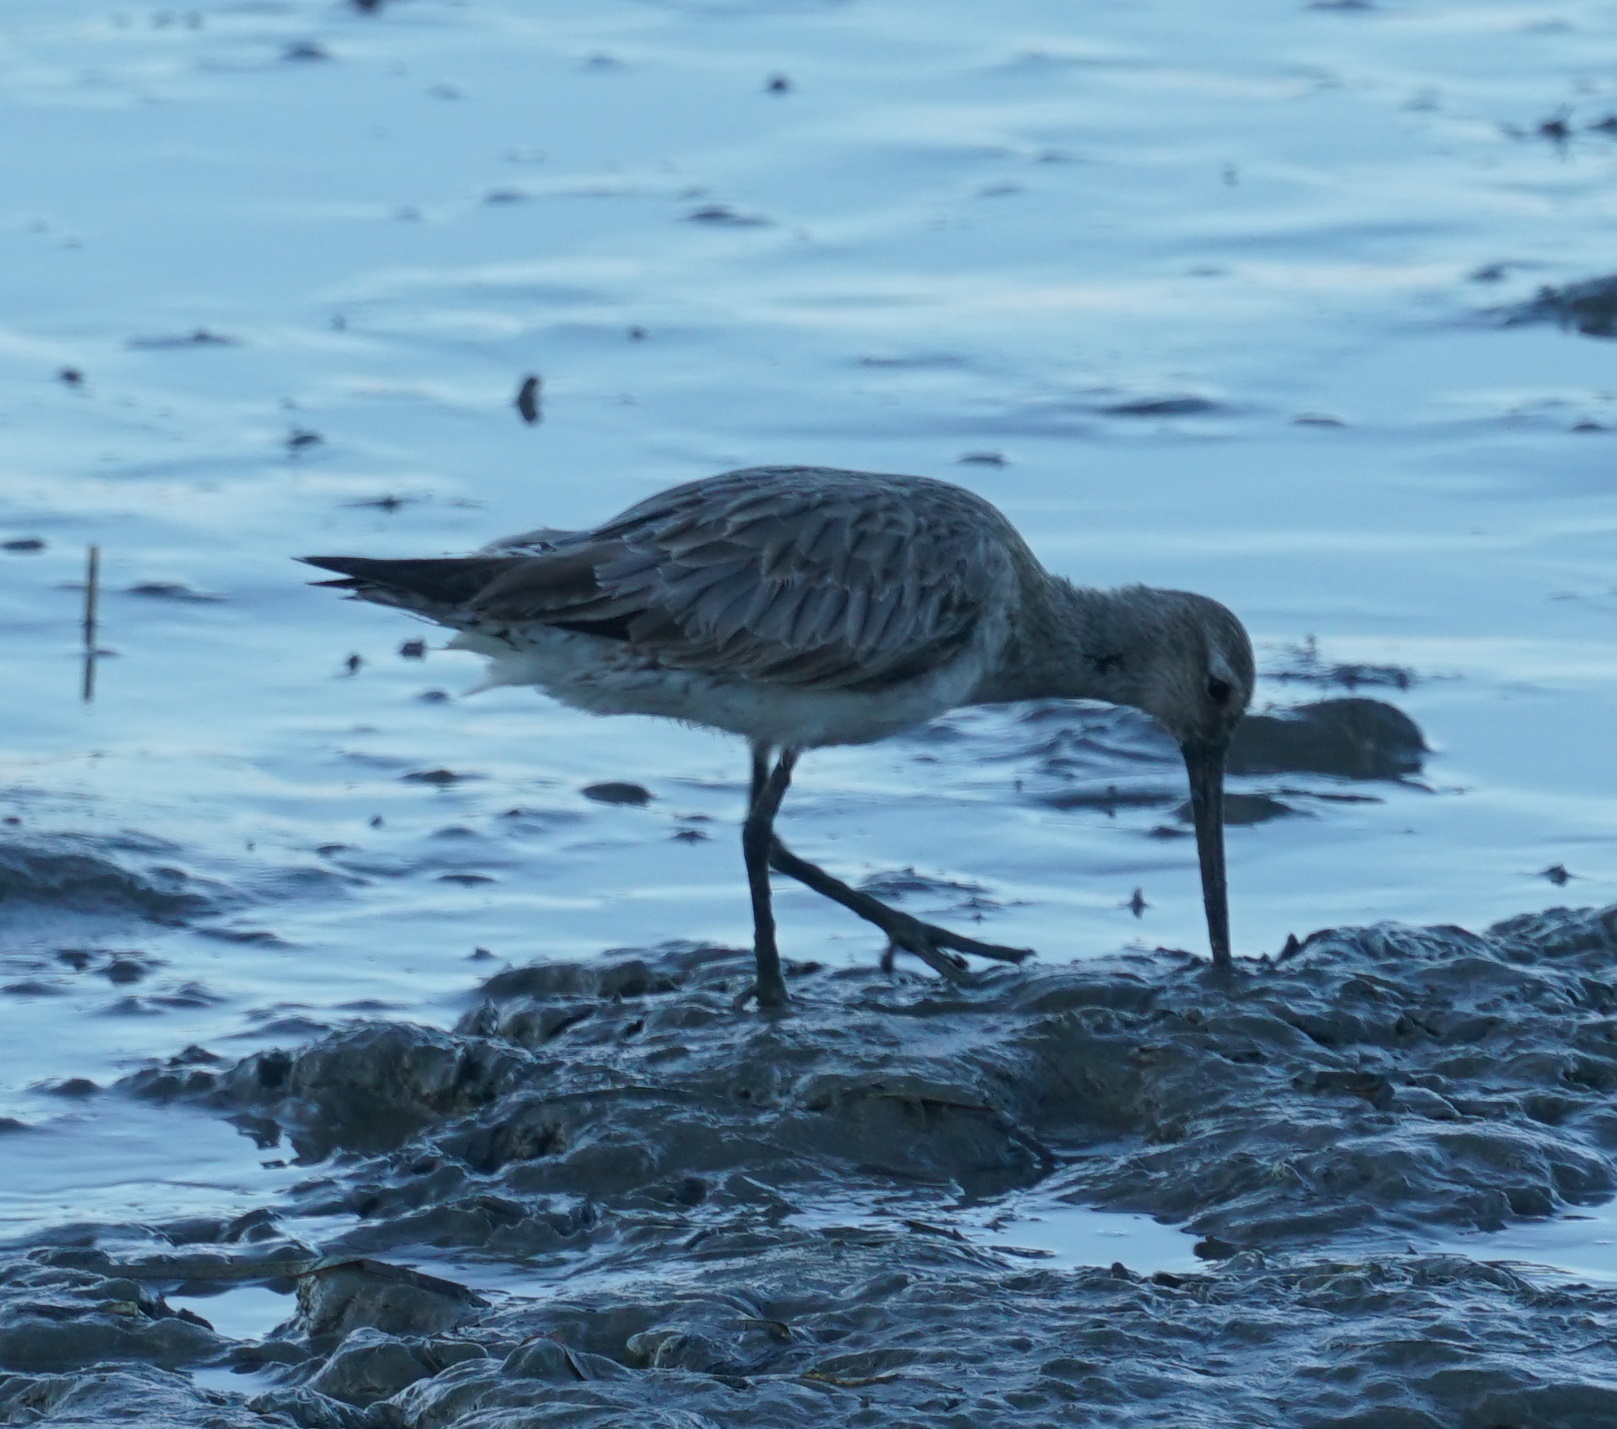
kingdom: Animalia
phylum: Chordata
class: Aves
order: Charadriiformes
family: Scolopacidae
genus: Limosa
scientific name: Limosa lapponica
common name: Bar-tailed godwit
